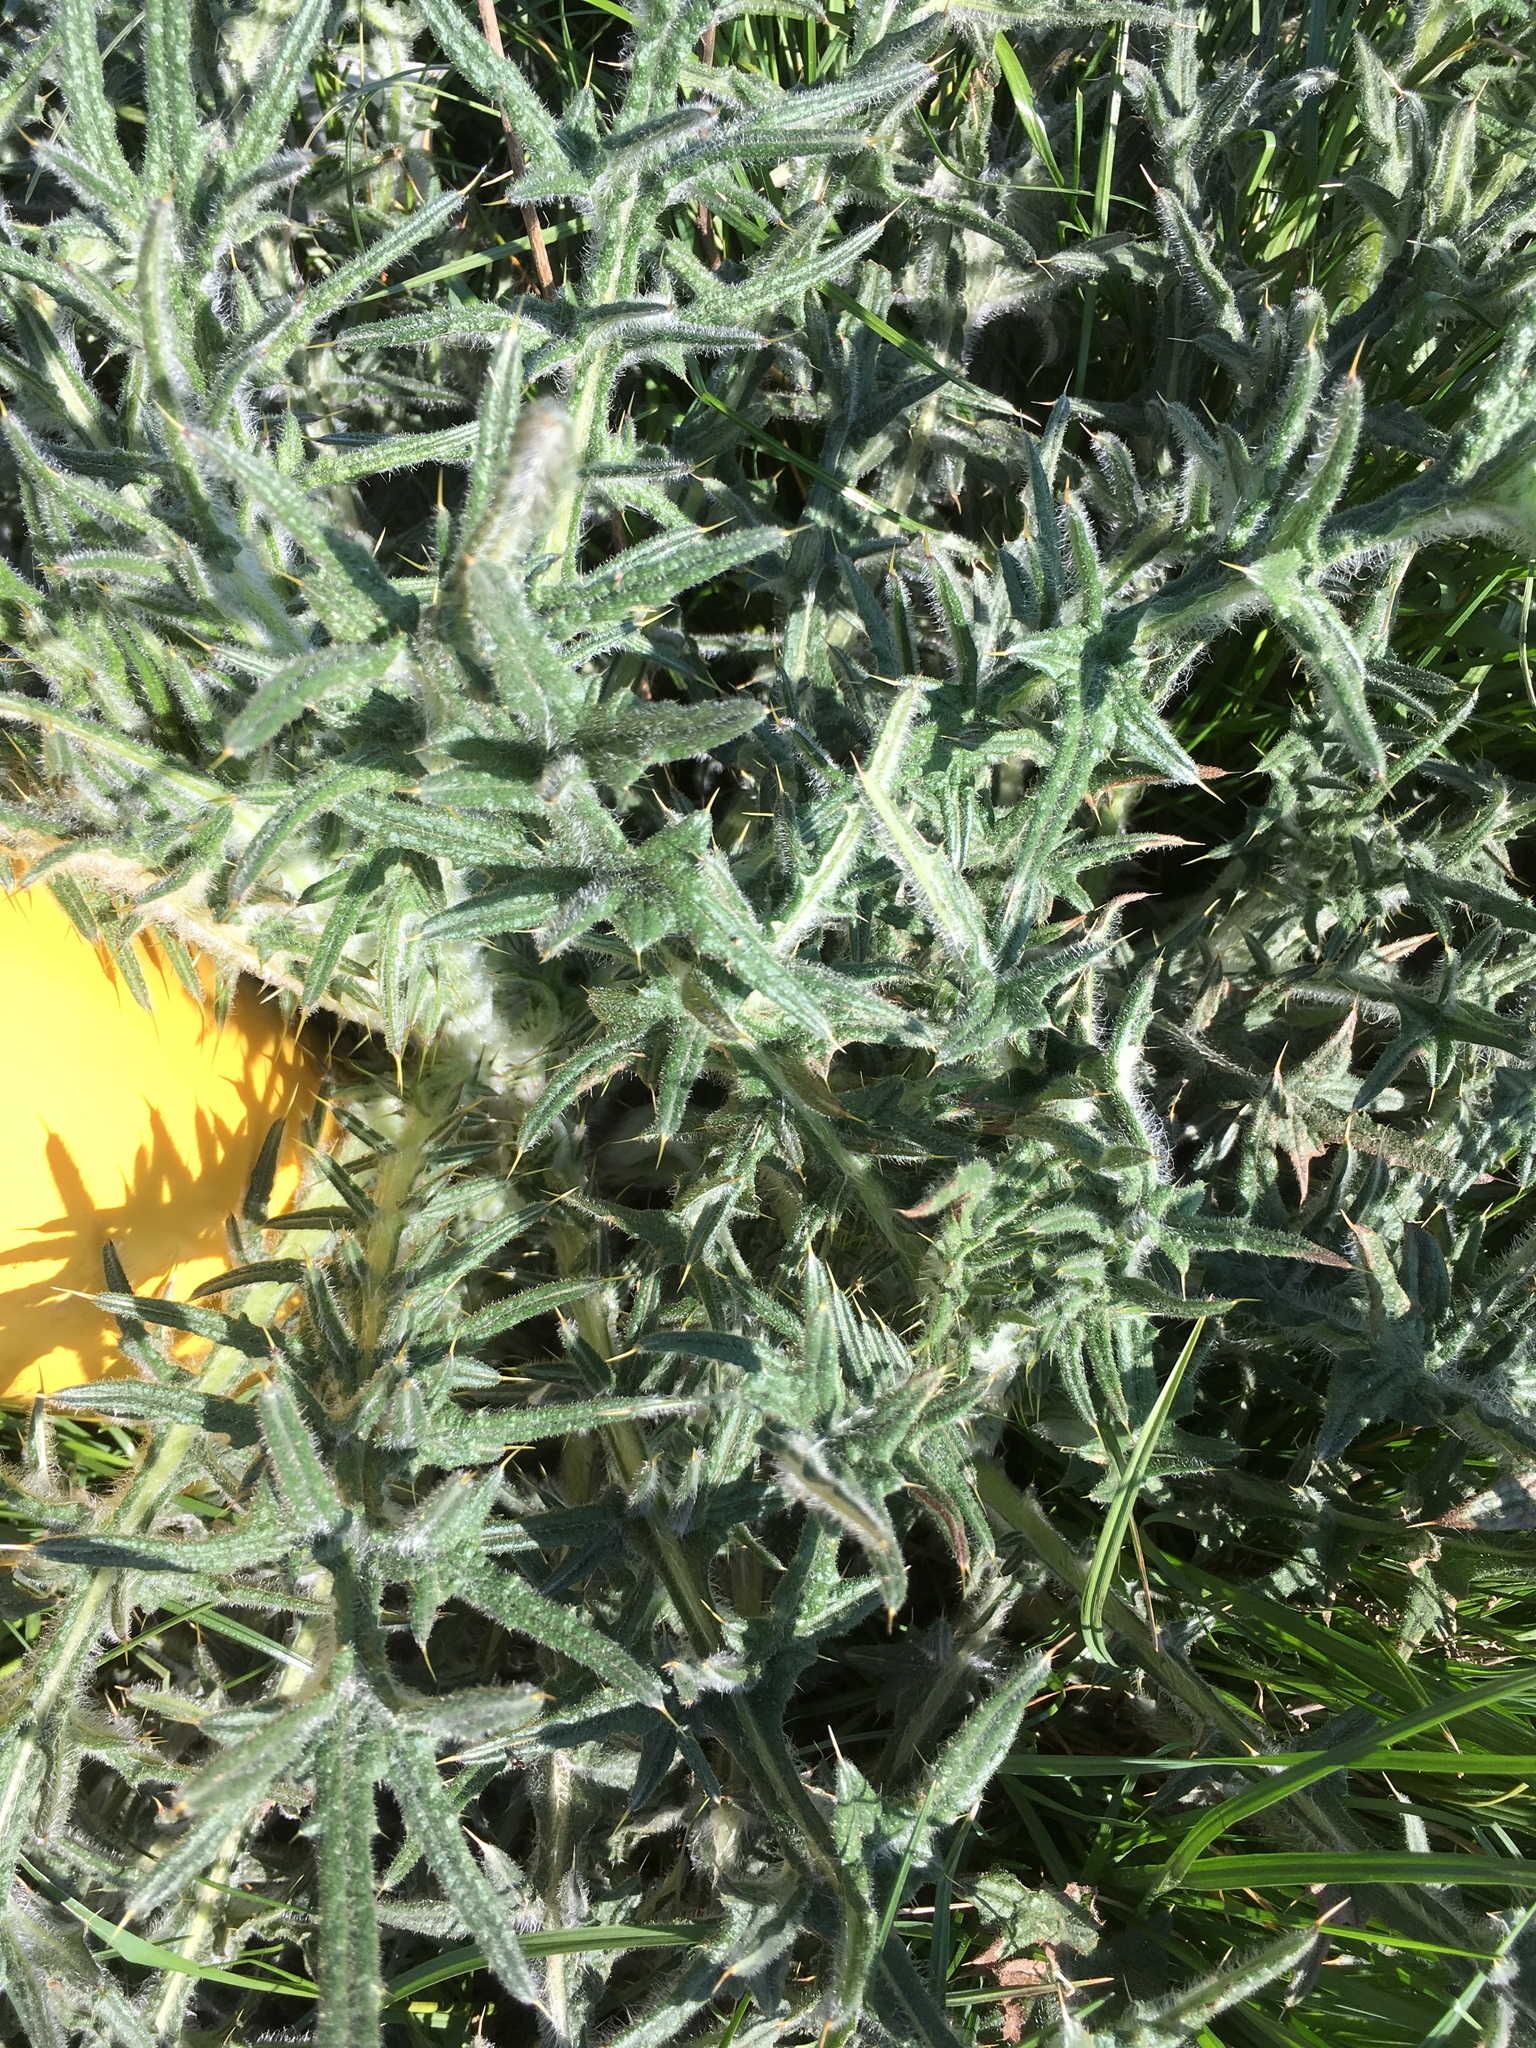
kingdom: Plantae
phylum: Tracheophyta
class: Magnoliopsida
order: Asterales
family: Asteraceae
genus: Cirsium
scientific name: Cirsium vulgare
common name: Bull thistle
